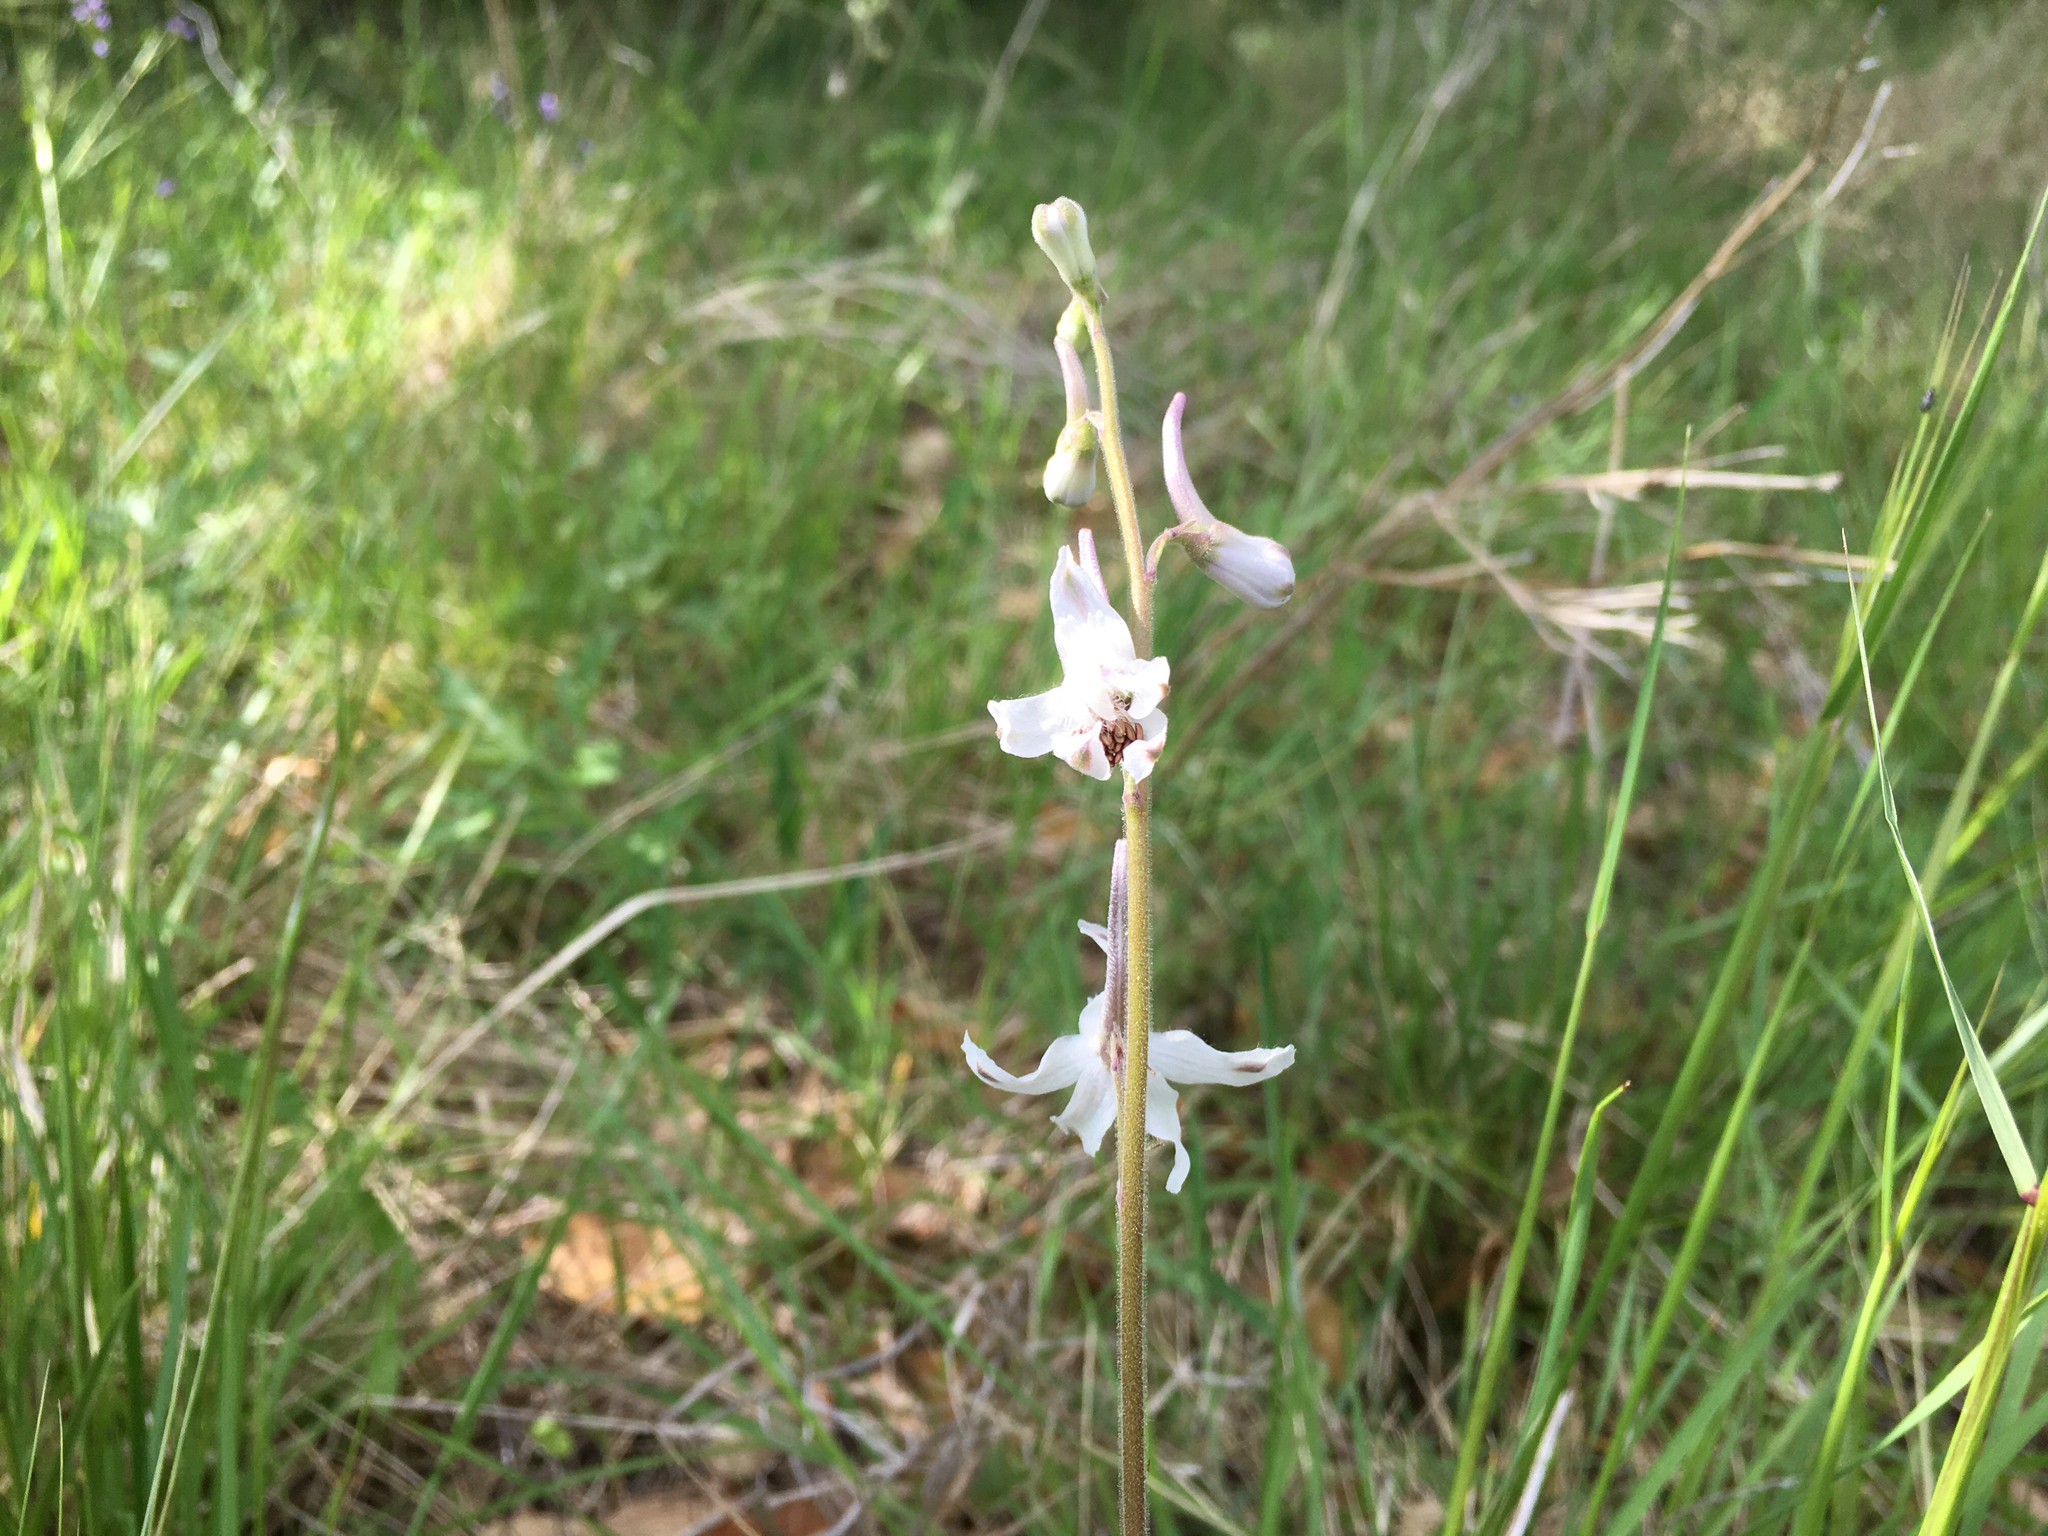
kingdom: Plantae
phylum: Tracheophyta
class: Magnoliopsida
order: Ranunculales
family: Ranunculaceae
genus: Delphinium
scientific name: Delphinium carolinianum
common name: Carolina larkspur
